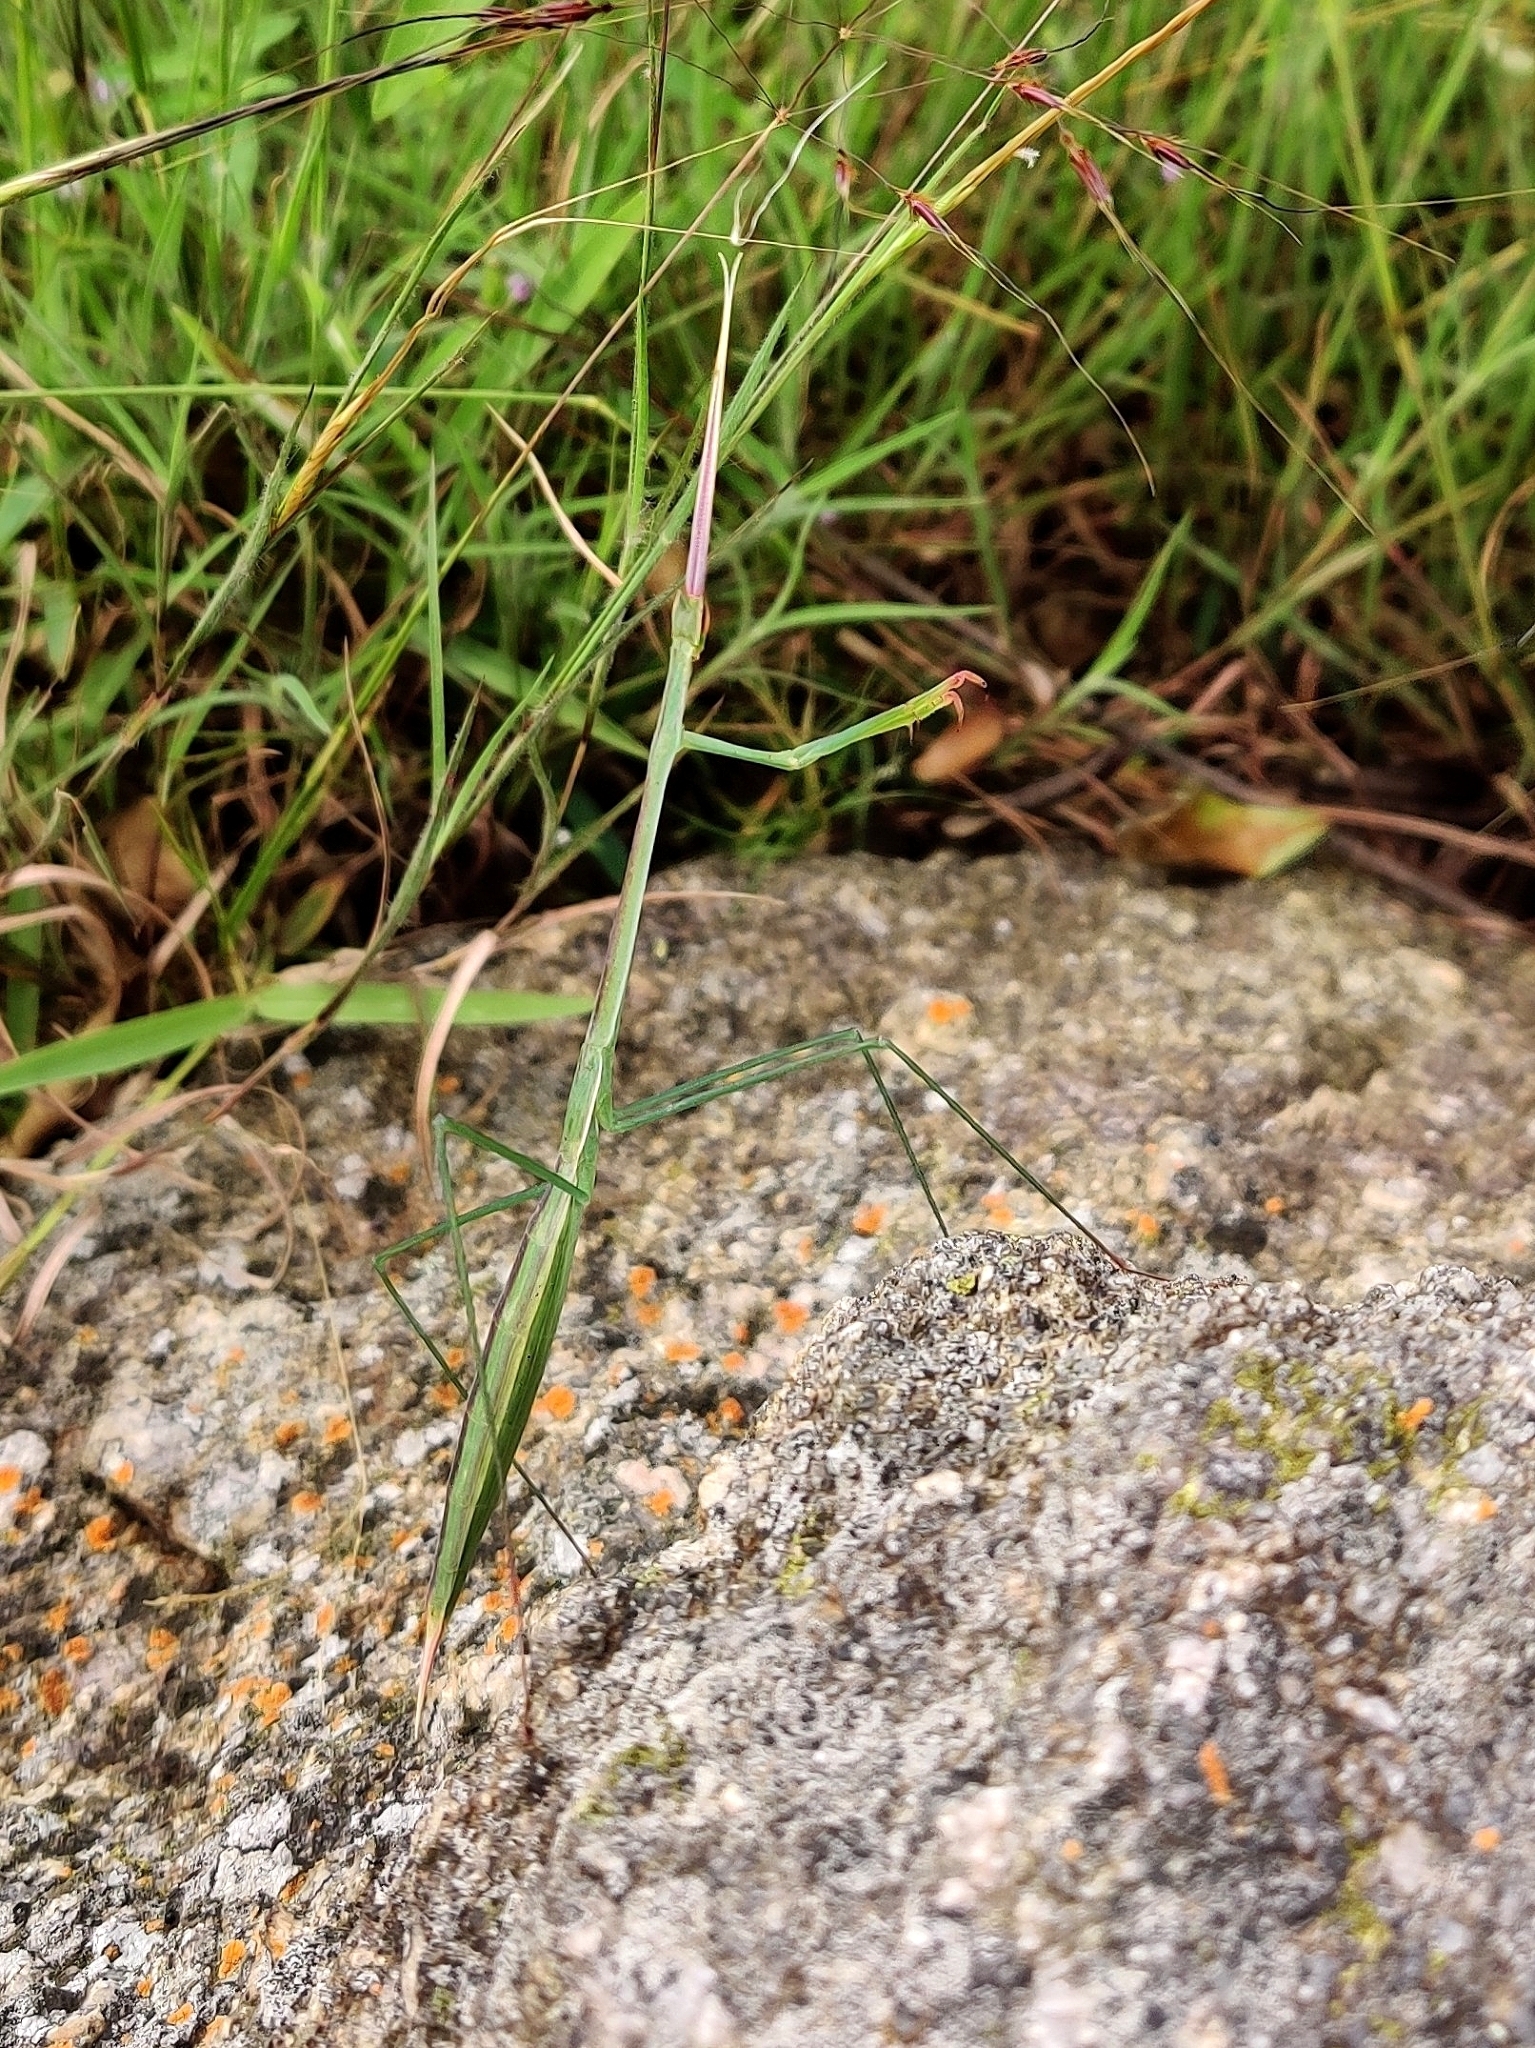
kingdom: Animalia
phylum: Arthropoda
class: Insecta
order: Mantodea
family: Eremiaphilidae
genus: Schizocephala
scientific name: Schizocephala bicornis
